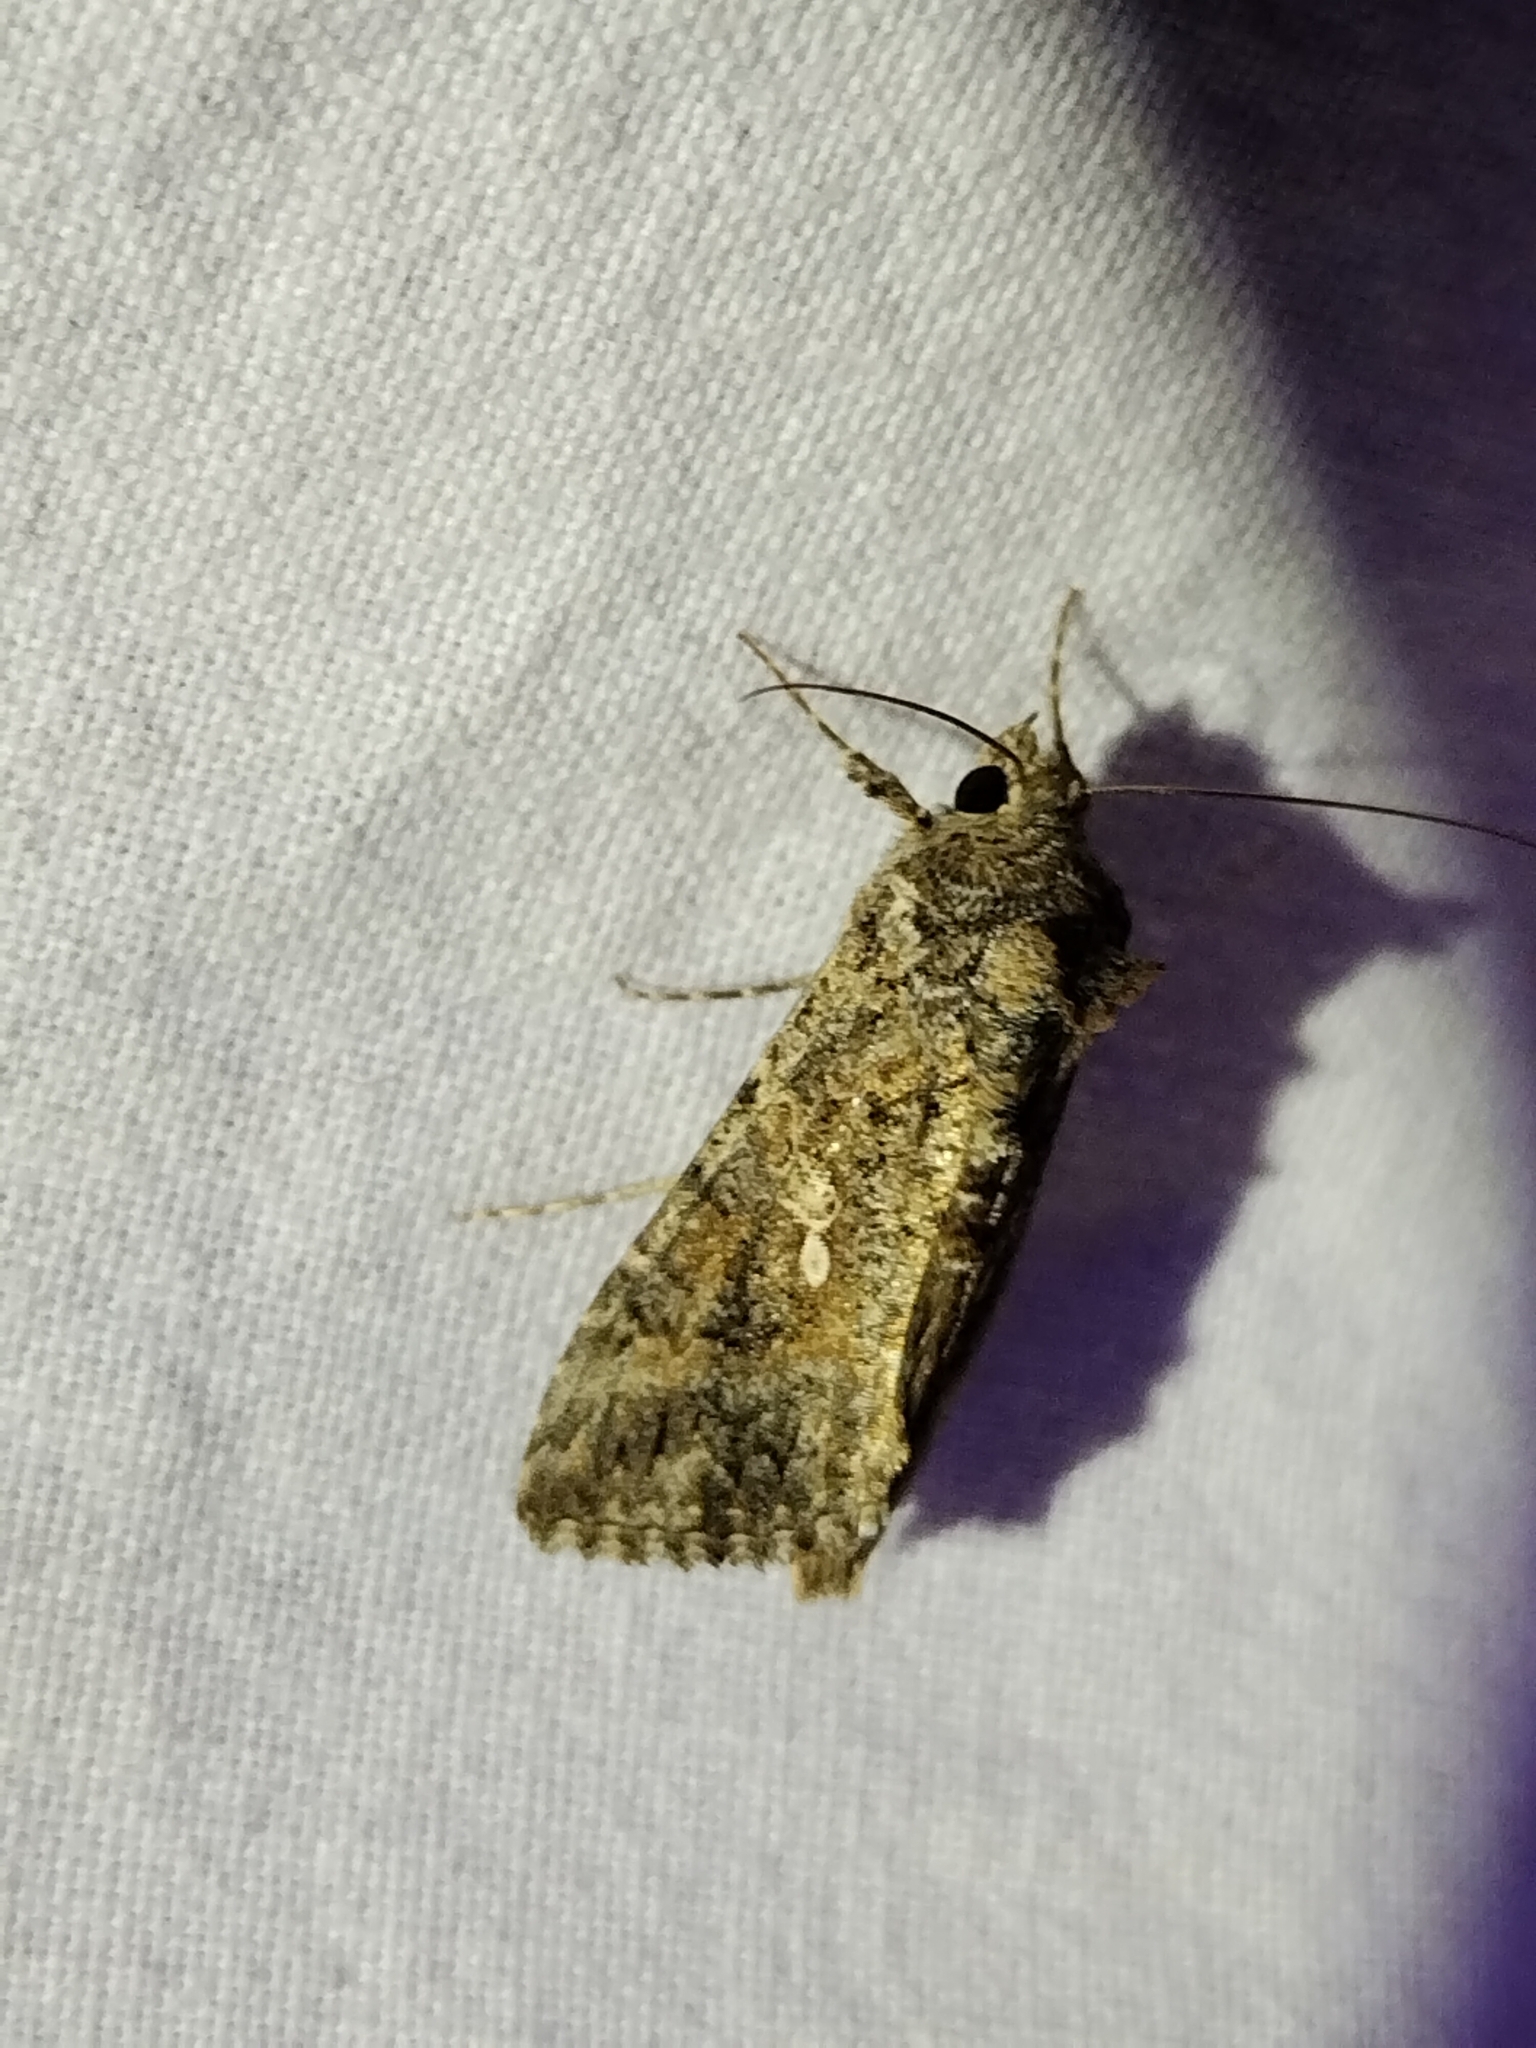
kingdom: Animalia
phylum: Arthropoda
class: Insecta
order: Lepidoptera
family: Noctuidae
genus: Trichoplusia
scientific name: Trichoplusia ni
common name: Ni moth
